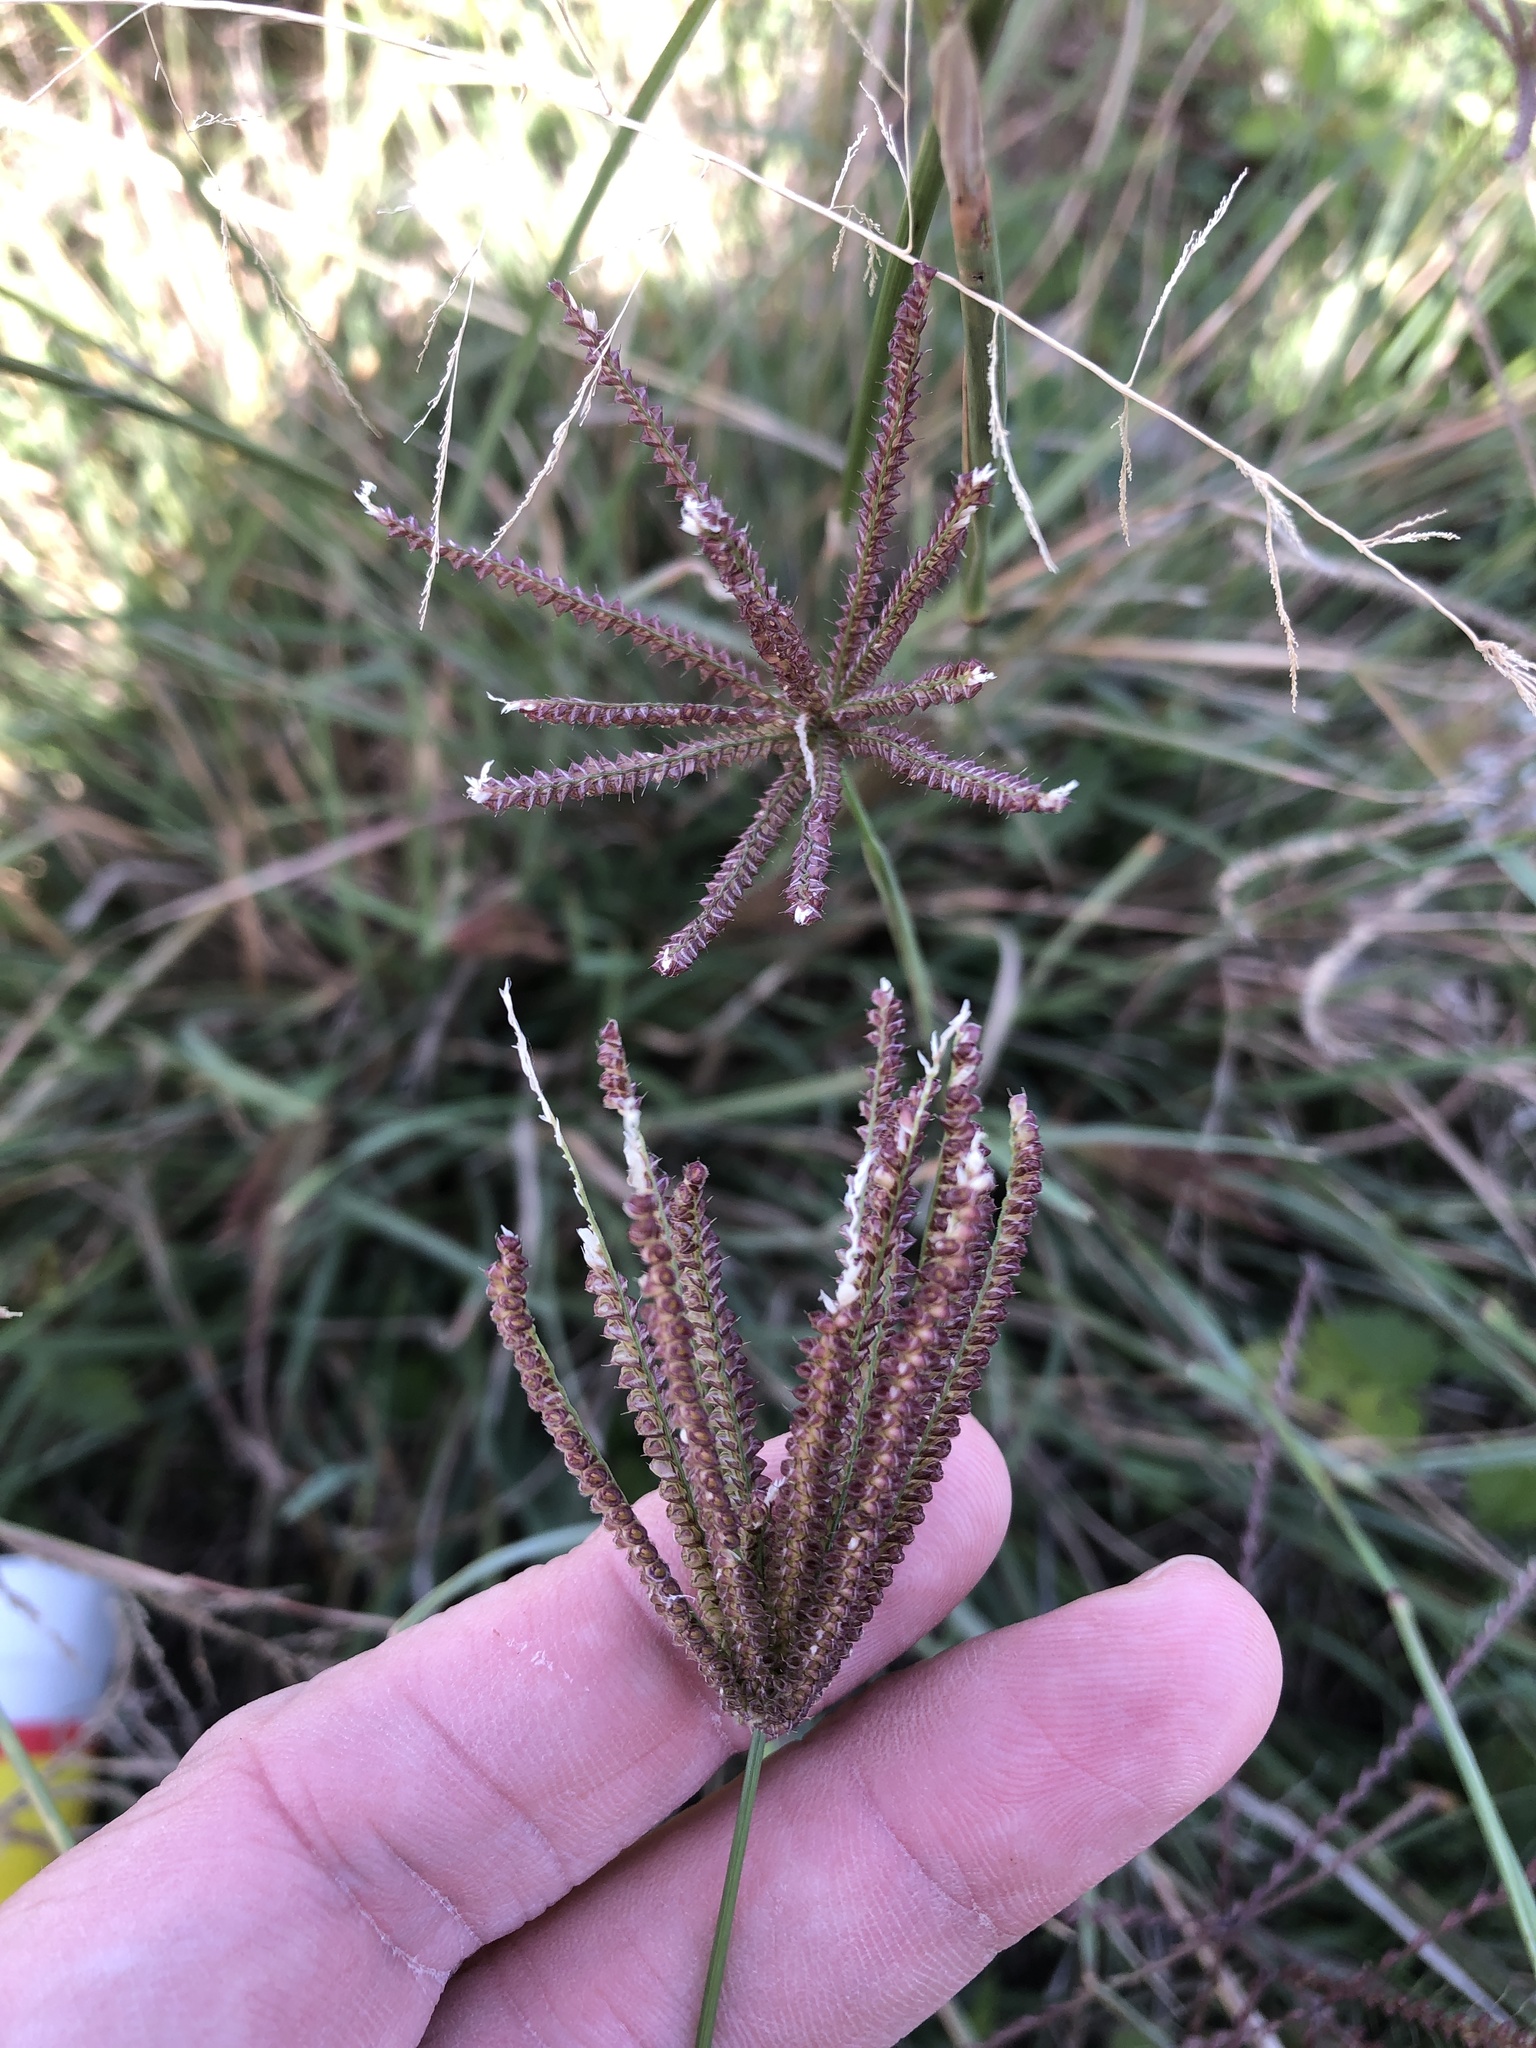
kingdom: Plantae
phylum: Tracheophyta
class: Liliopsida
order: Poales
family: Poaceae
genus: Chloris
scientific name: Chloris cucullata
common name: Hooded windmill grass
